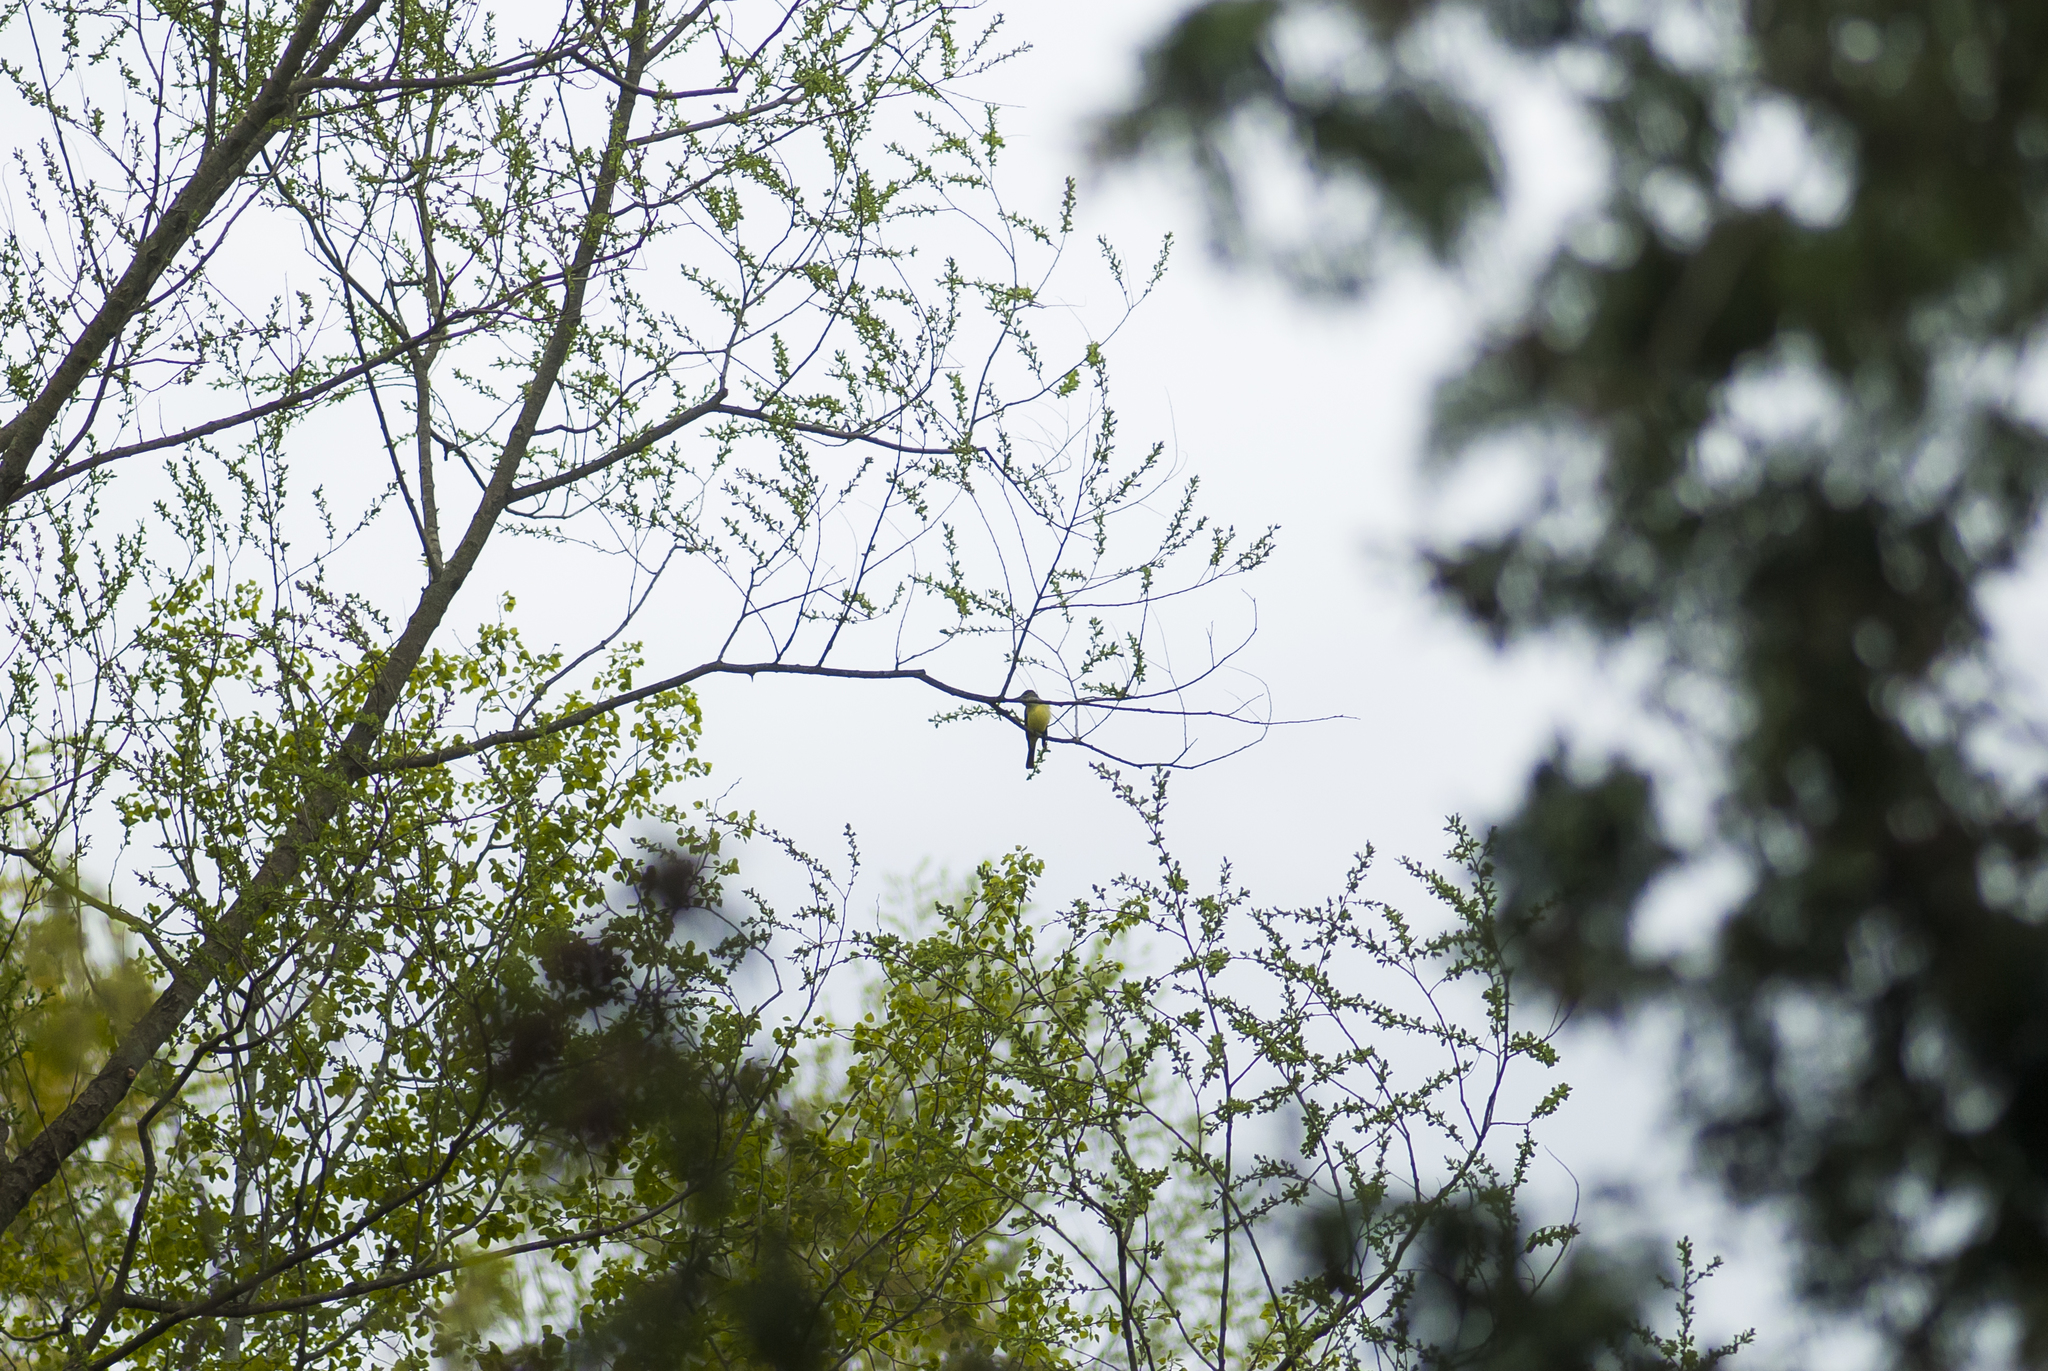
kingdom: Animalia
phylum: Chordata
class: Aves
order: Passeriformes
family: Tyrannidae
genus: Myiarchus
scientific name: Myiarchus crinitus
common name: Great crested flycatcher
